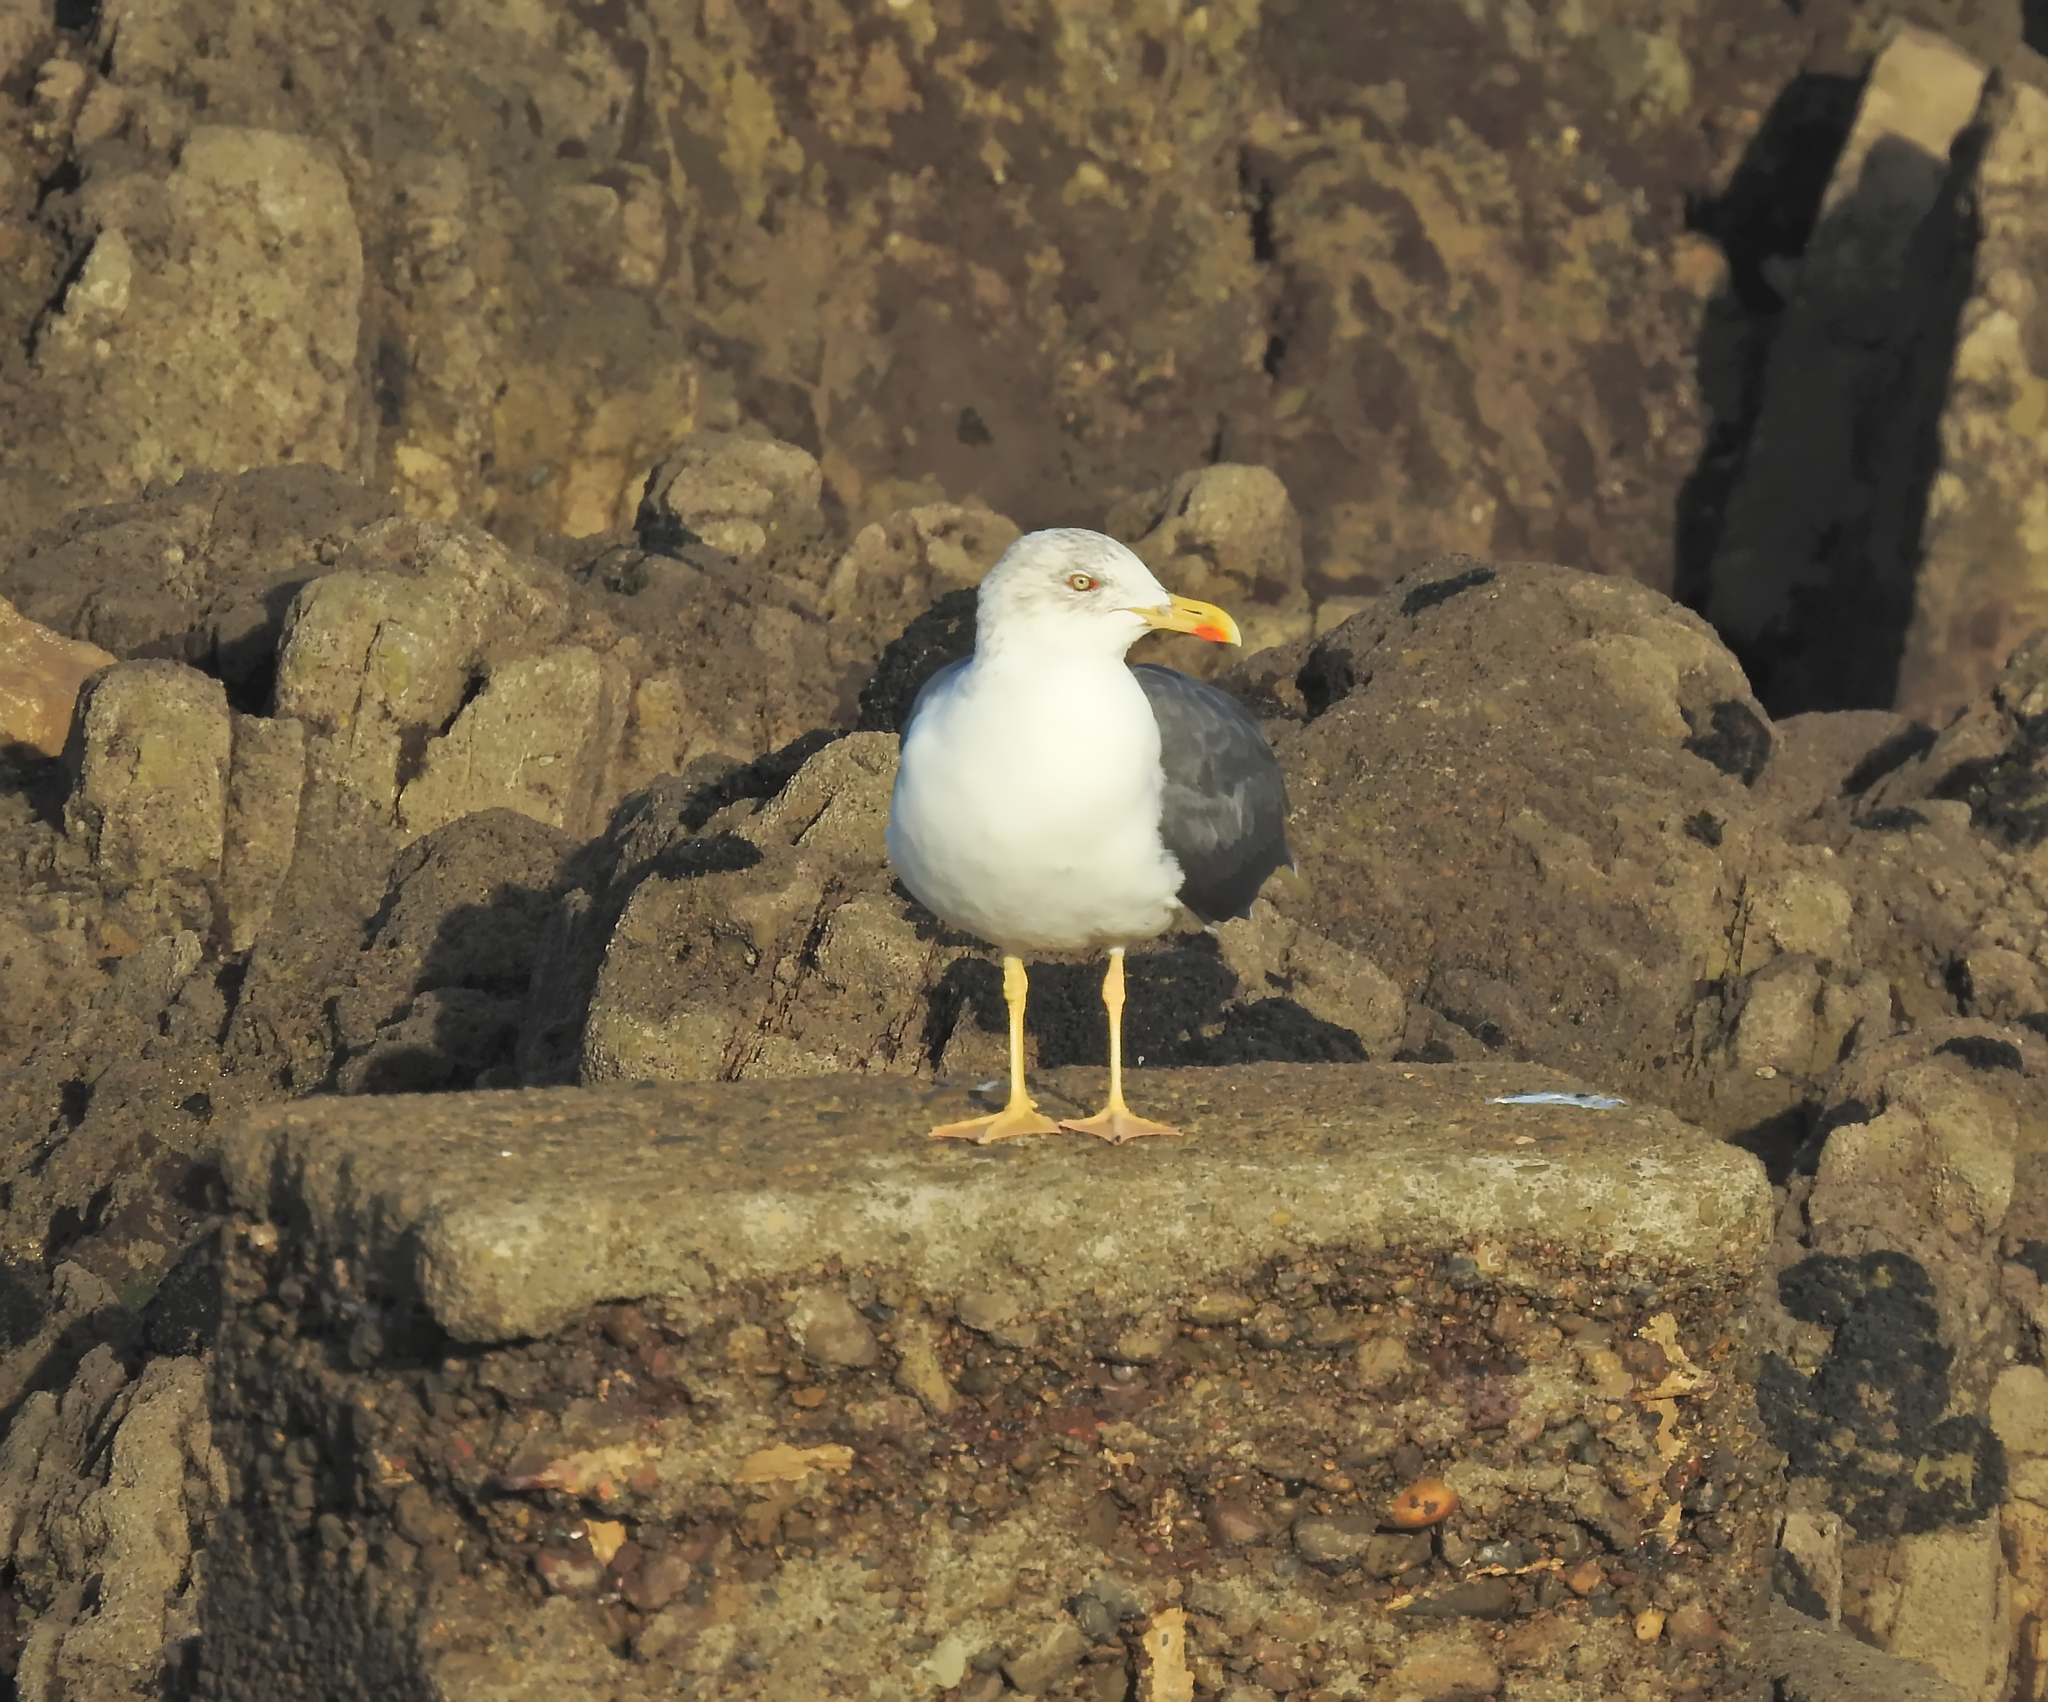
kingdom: Animalia
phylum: Chordata
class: Aves
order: Charadriiformes
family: Laridae
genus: Larus
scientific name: Larus fuscus
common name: Lesser black-backed gull
